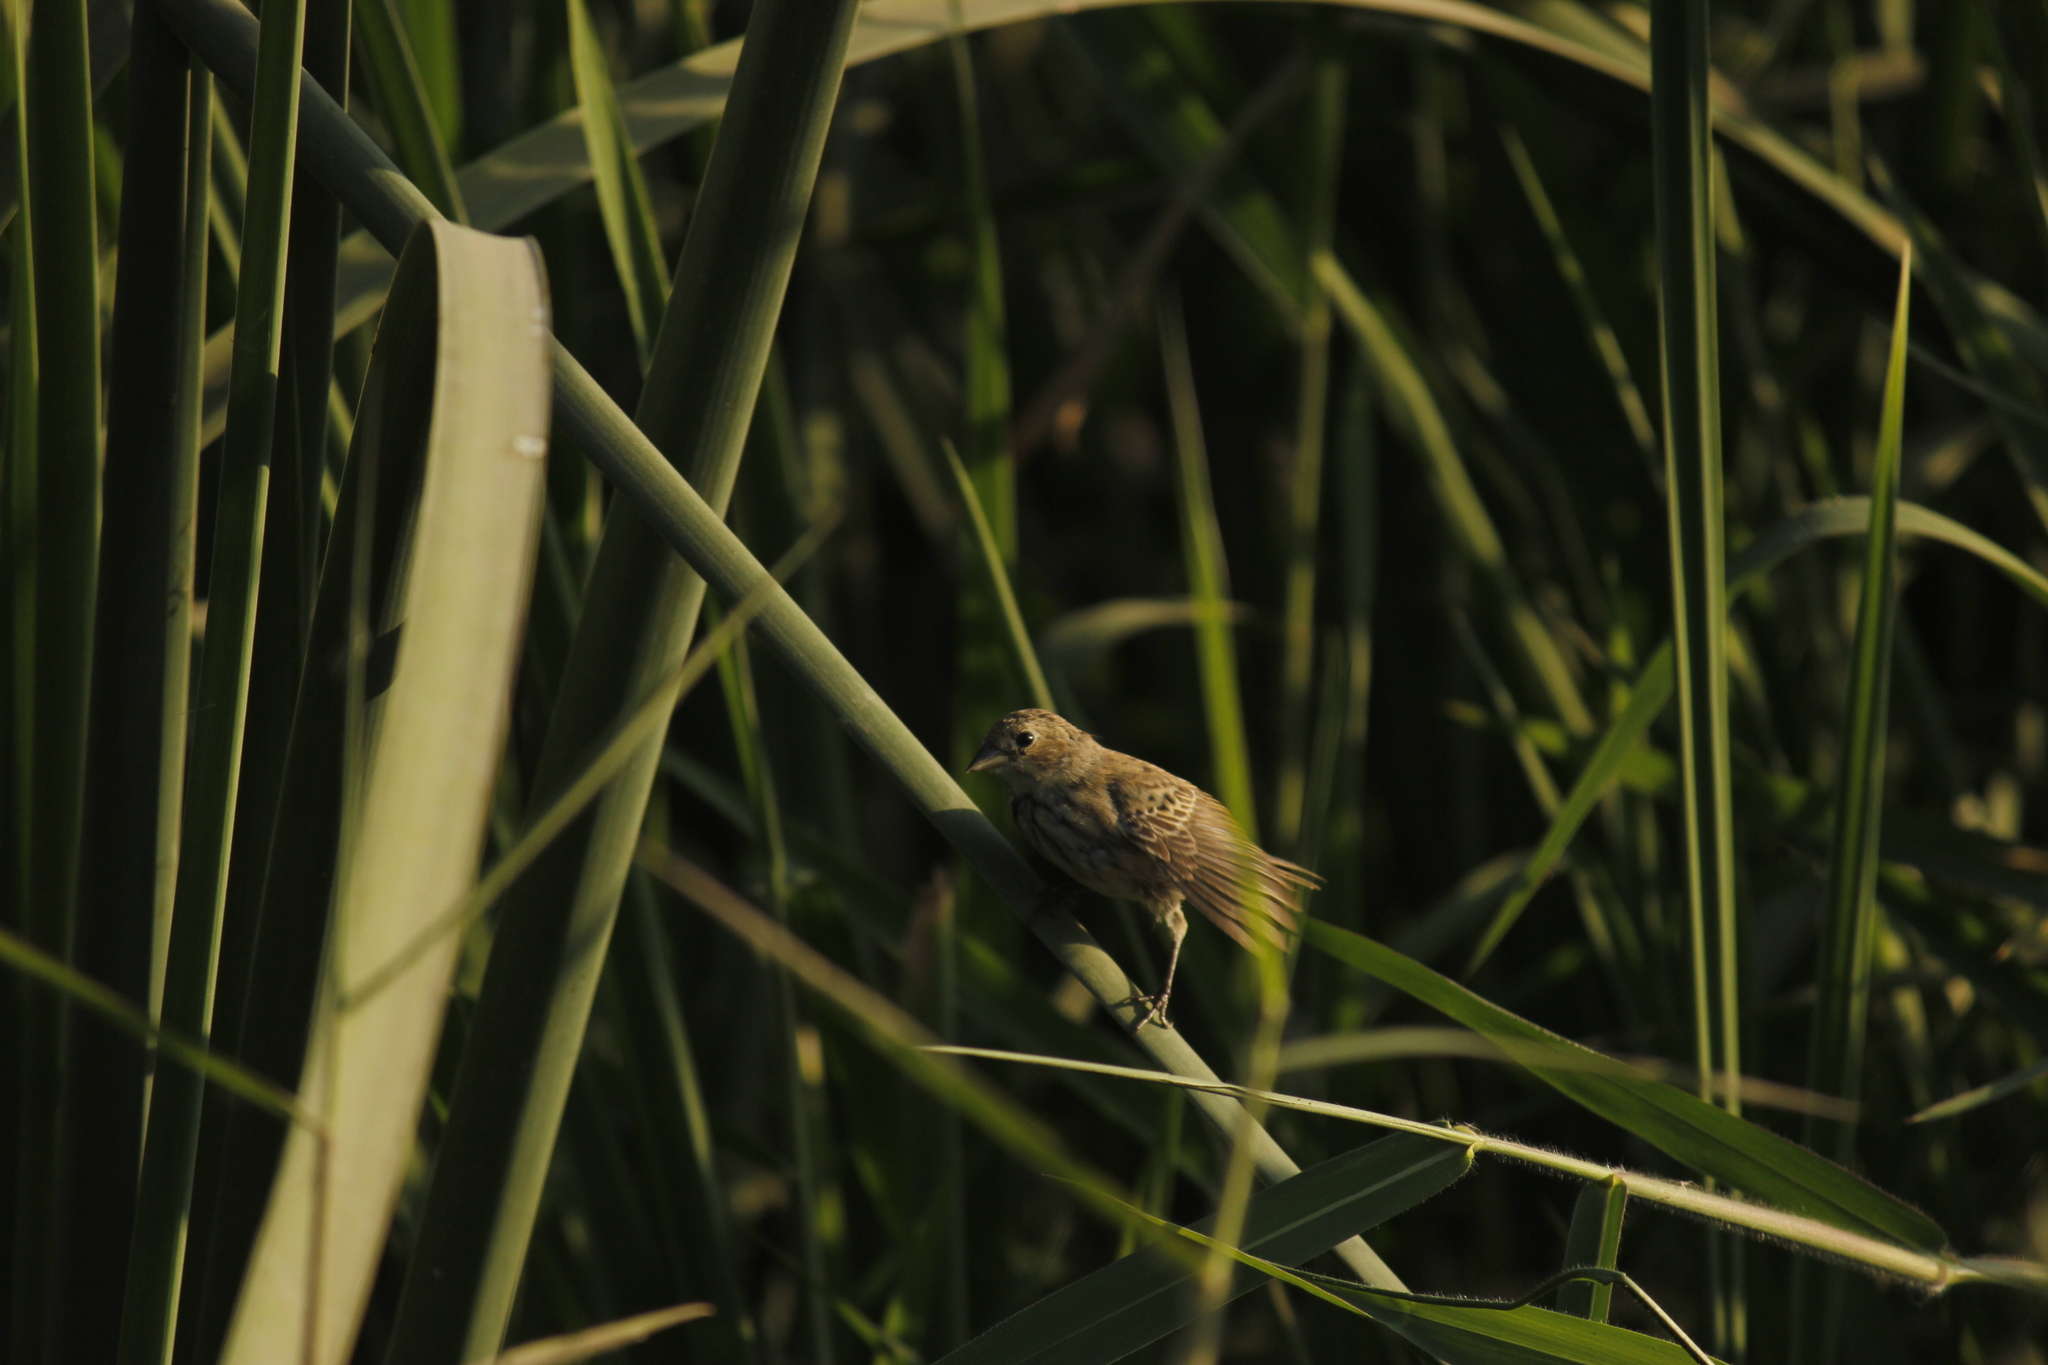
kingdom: Animalia
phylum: Chordata
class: Aves
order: Passeriformes
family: Thraupidae
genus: Volatinia
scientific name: Volatinia jacarina
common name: Blue-black grassquit
